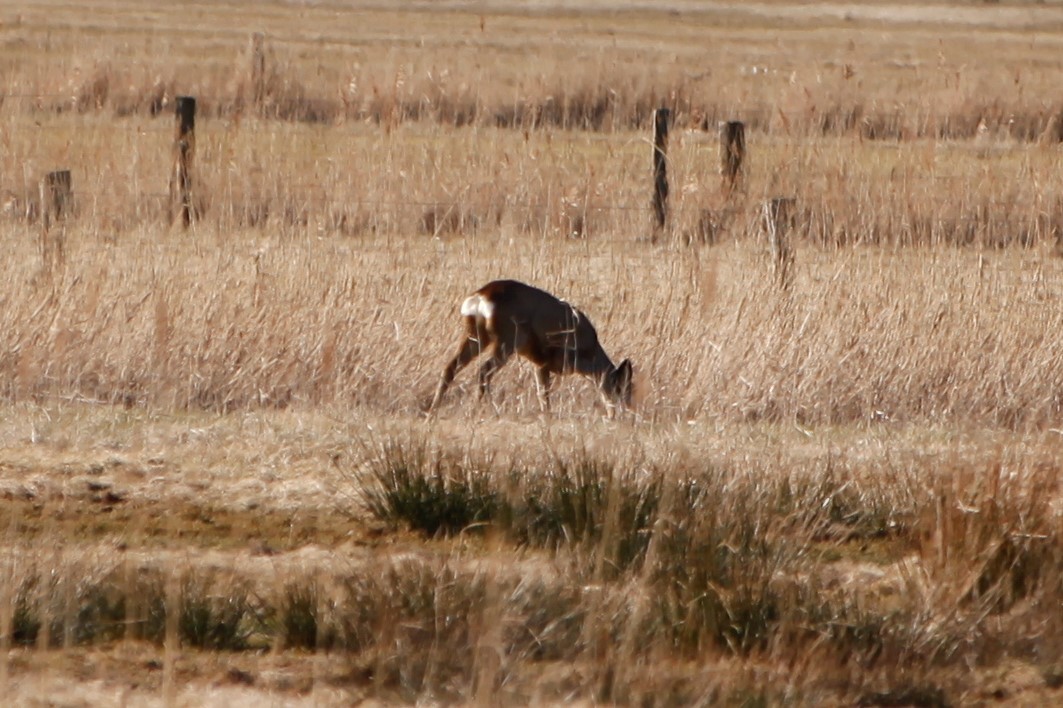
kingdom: Animalia
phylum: Chordata
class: Mammalia
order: Artiodactyla
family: Cervidae
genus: Capreolus
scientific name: Capreolus capreolus
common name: Western roe deer
